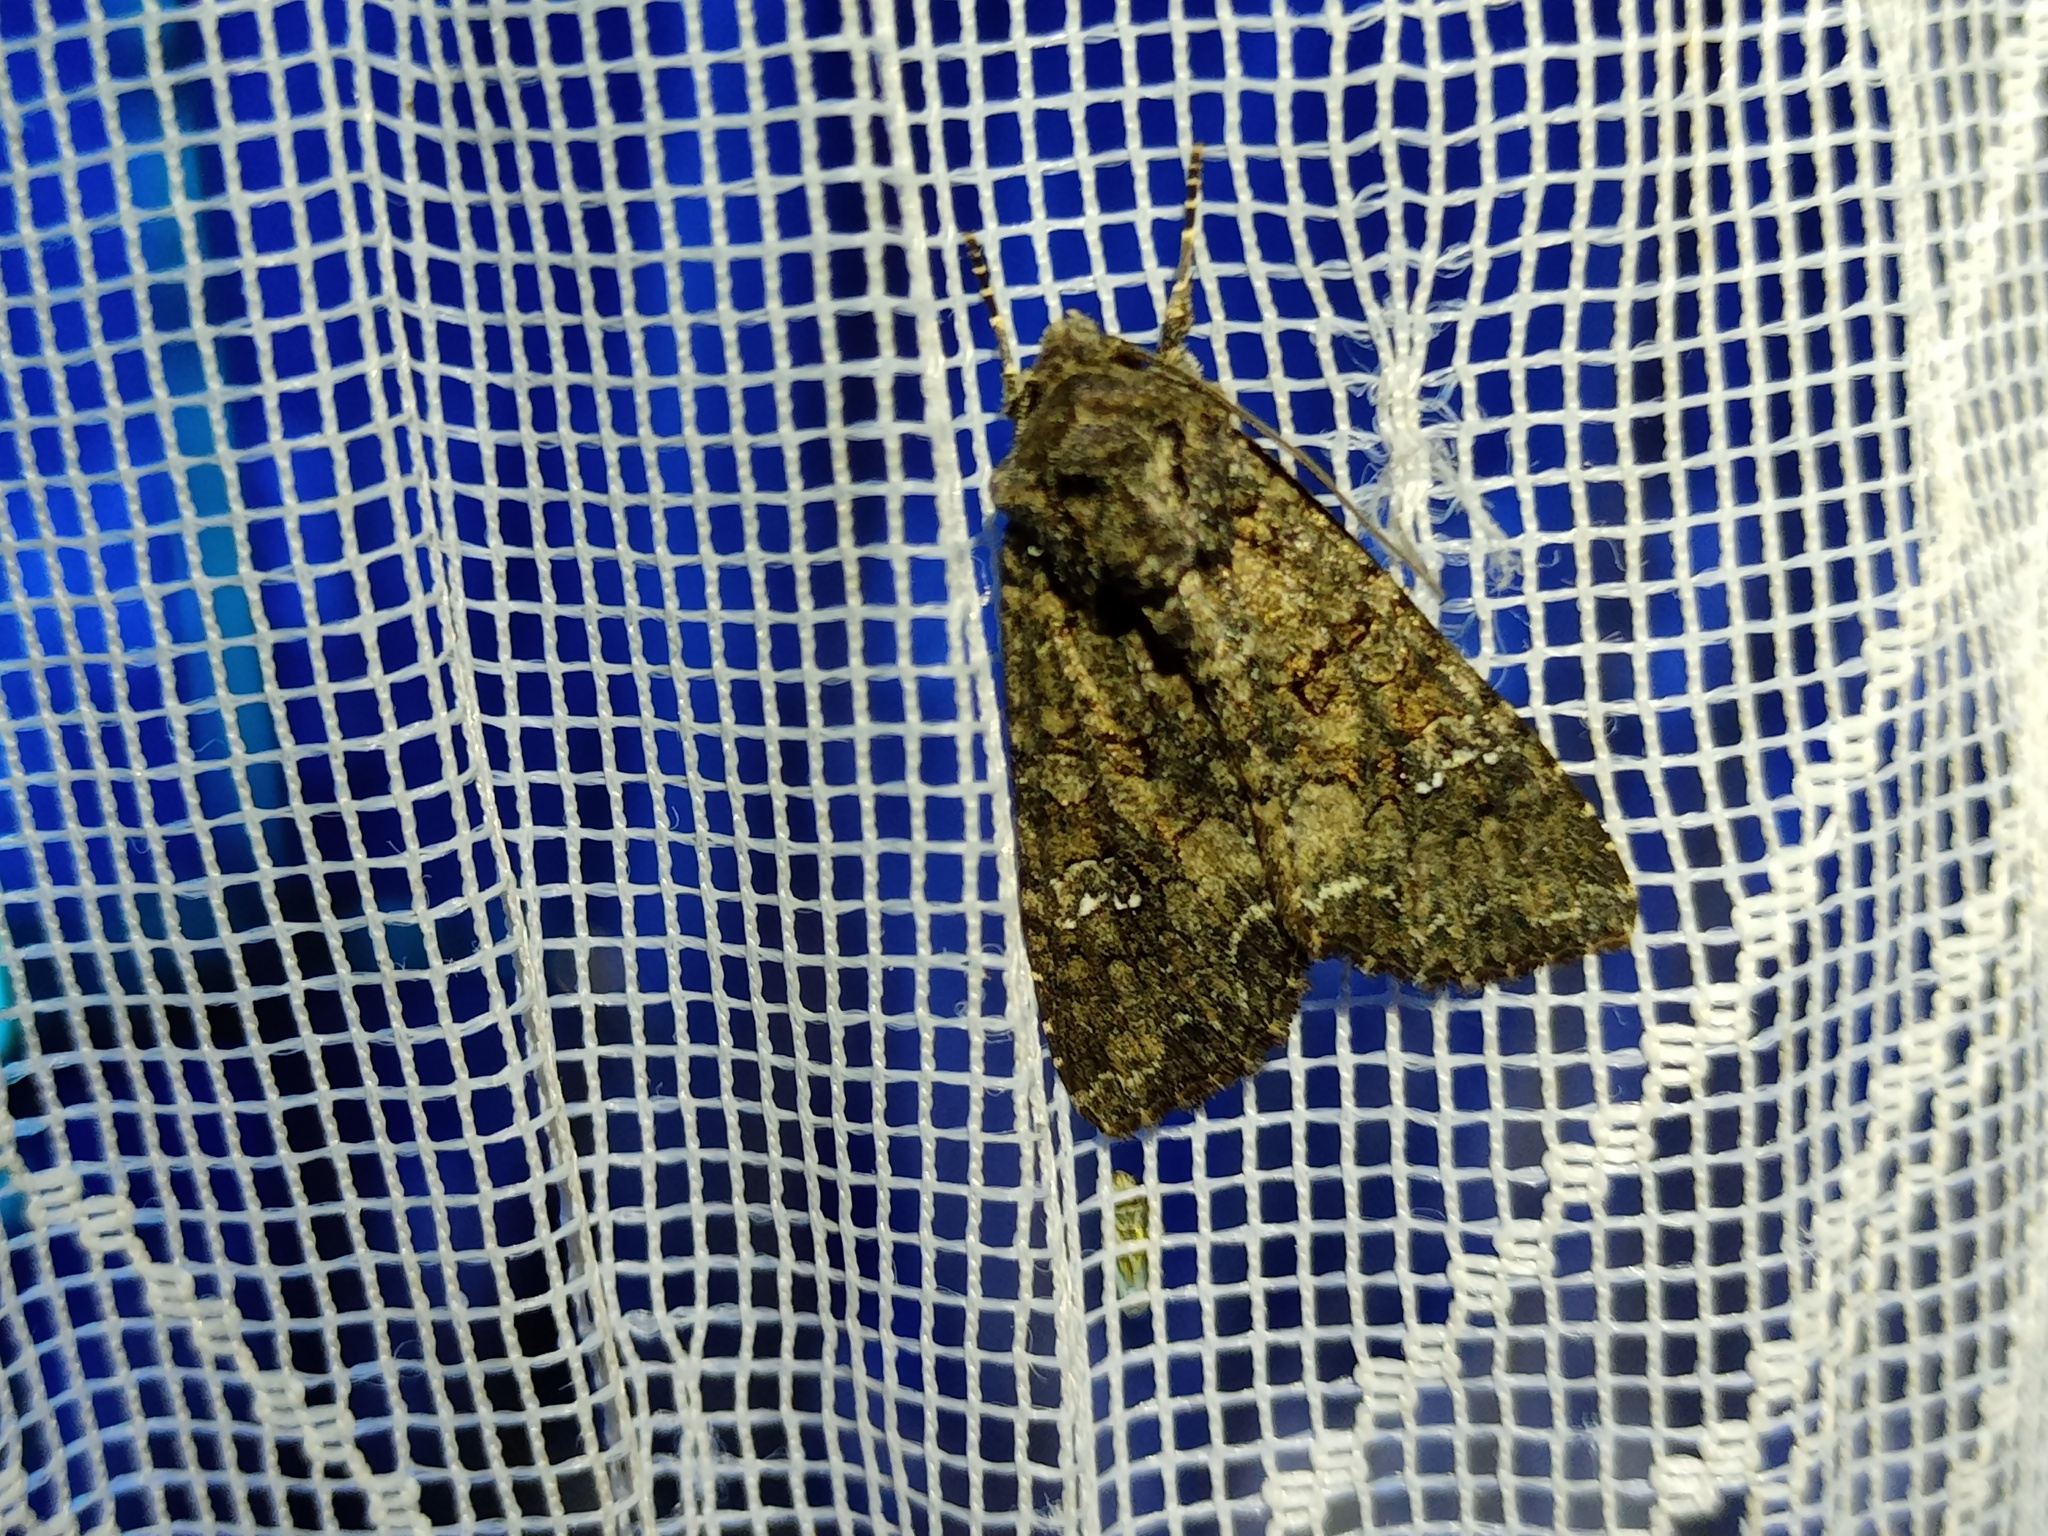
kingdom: Animalia
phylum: Arthropoda
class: Insecta
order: Lepidoptera
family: Noctuidae
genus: Mamestra
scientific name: Mamestra brassicae
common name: Cabbage moth
